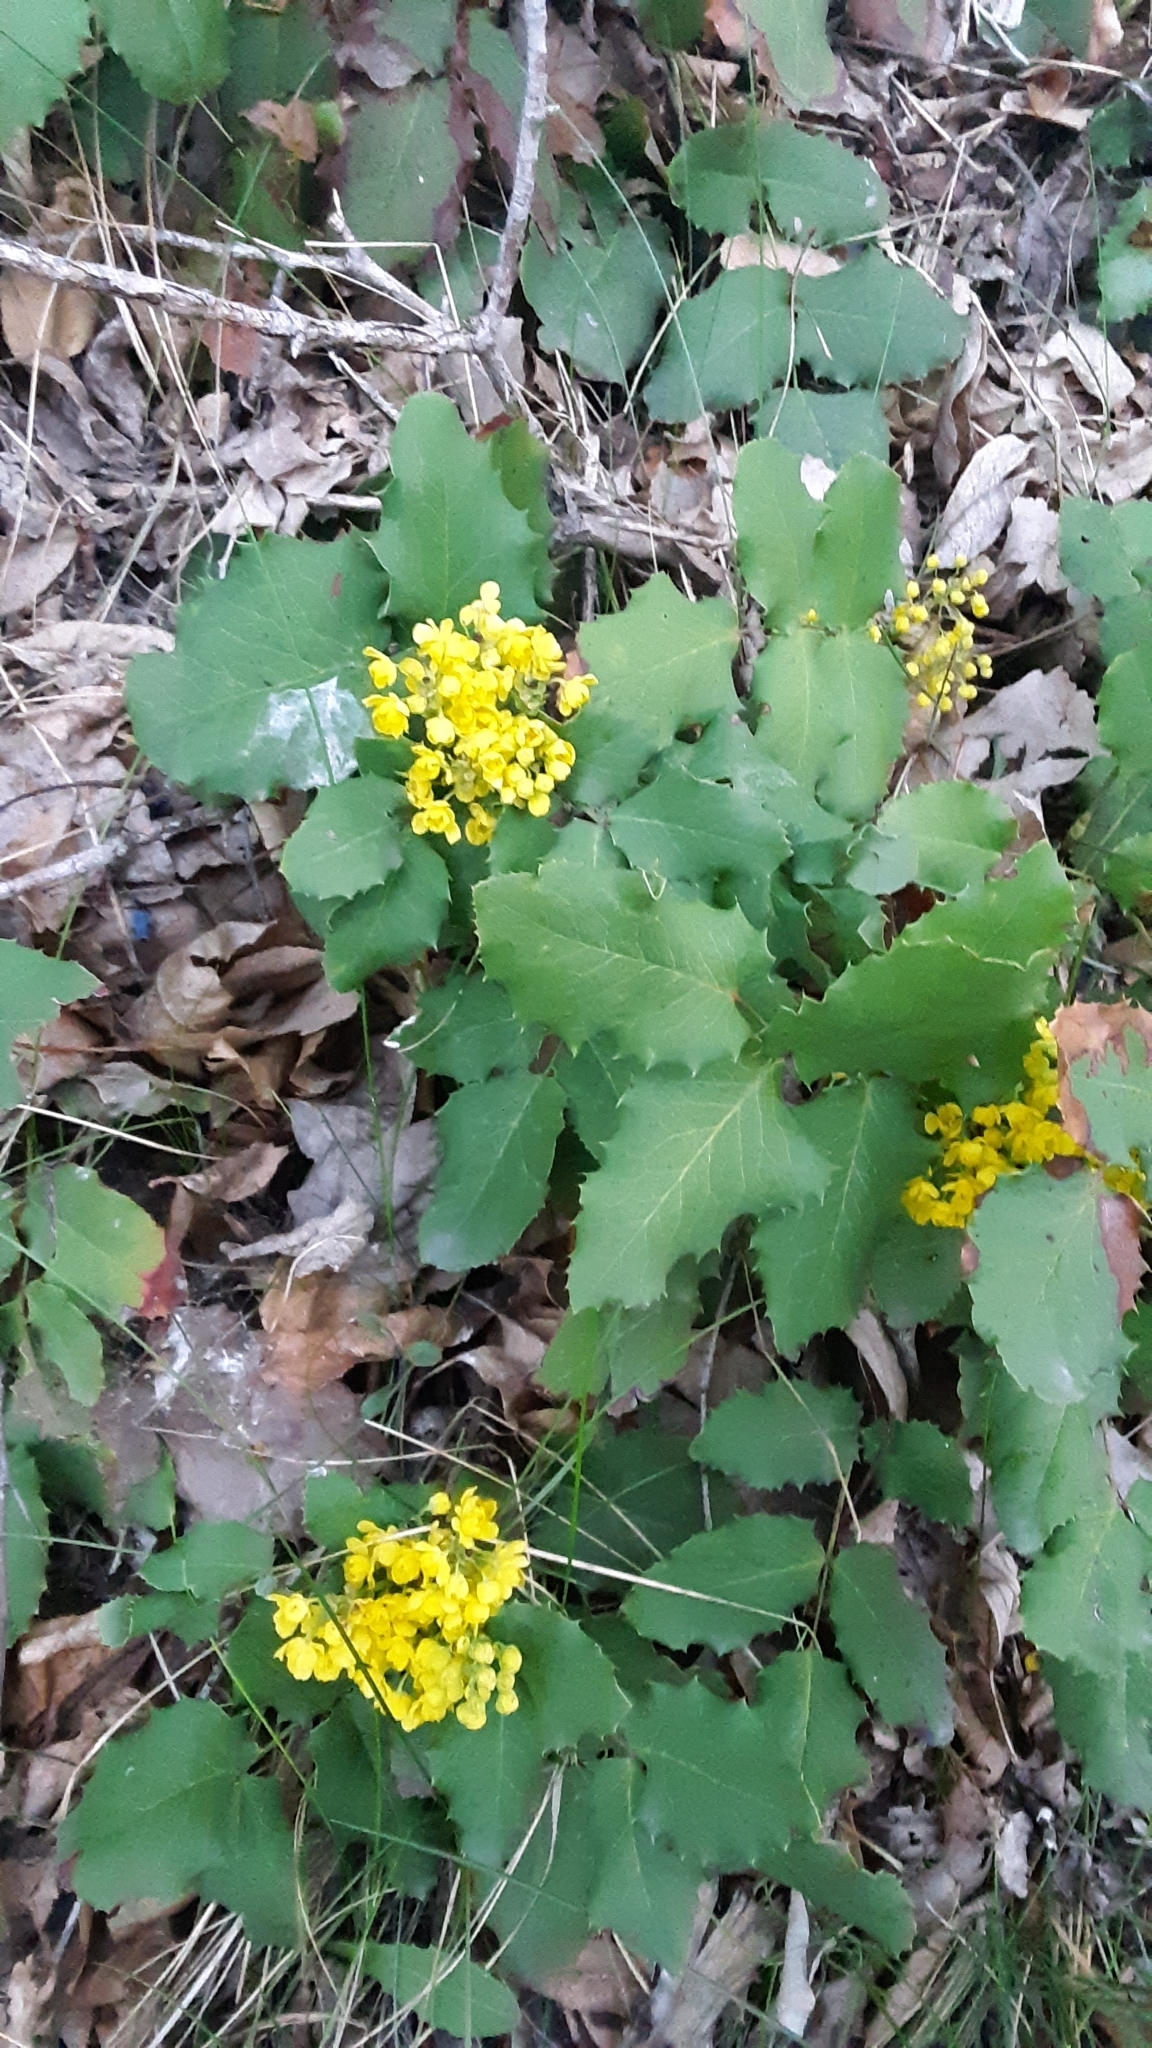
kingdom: Plantae
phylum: Tracheophyta
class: Magnoliopsida
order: Ranunculales
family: Berberidaceae
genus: Mahonia
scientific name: Mahonia repens
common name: Creeping oregon-grape
